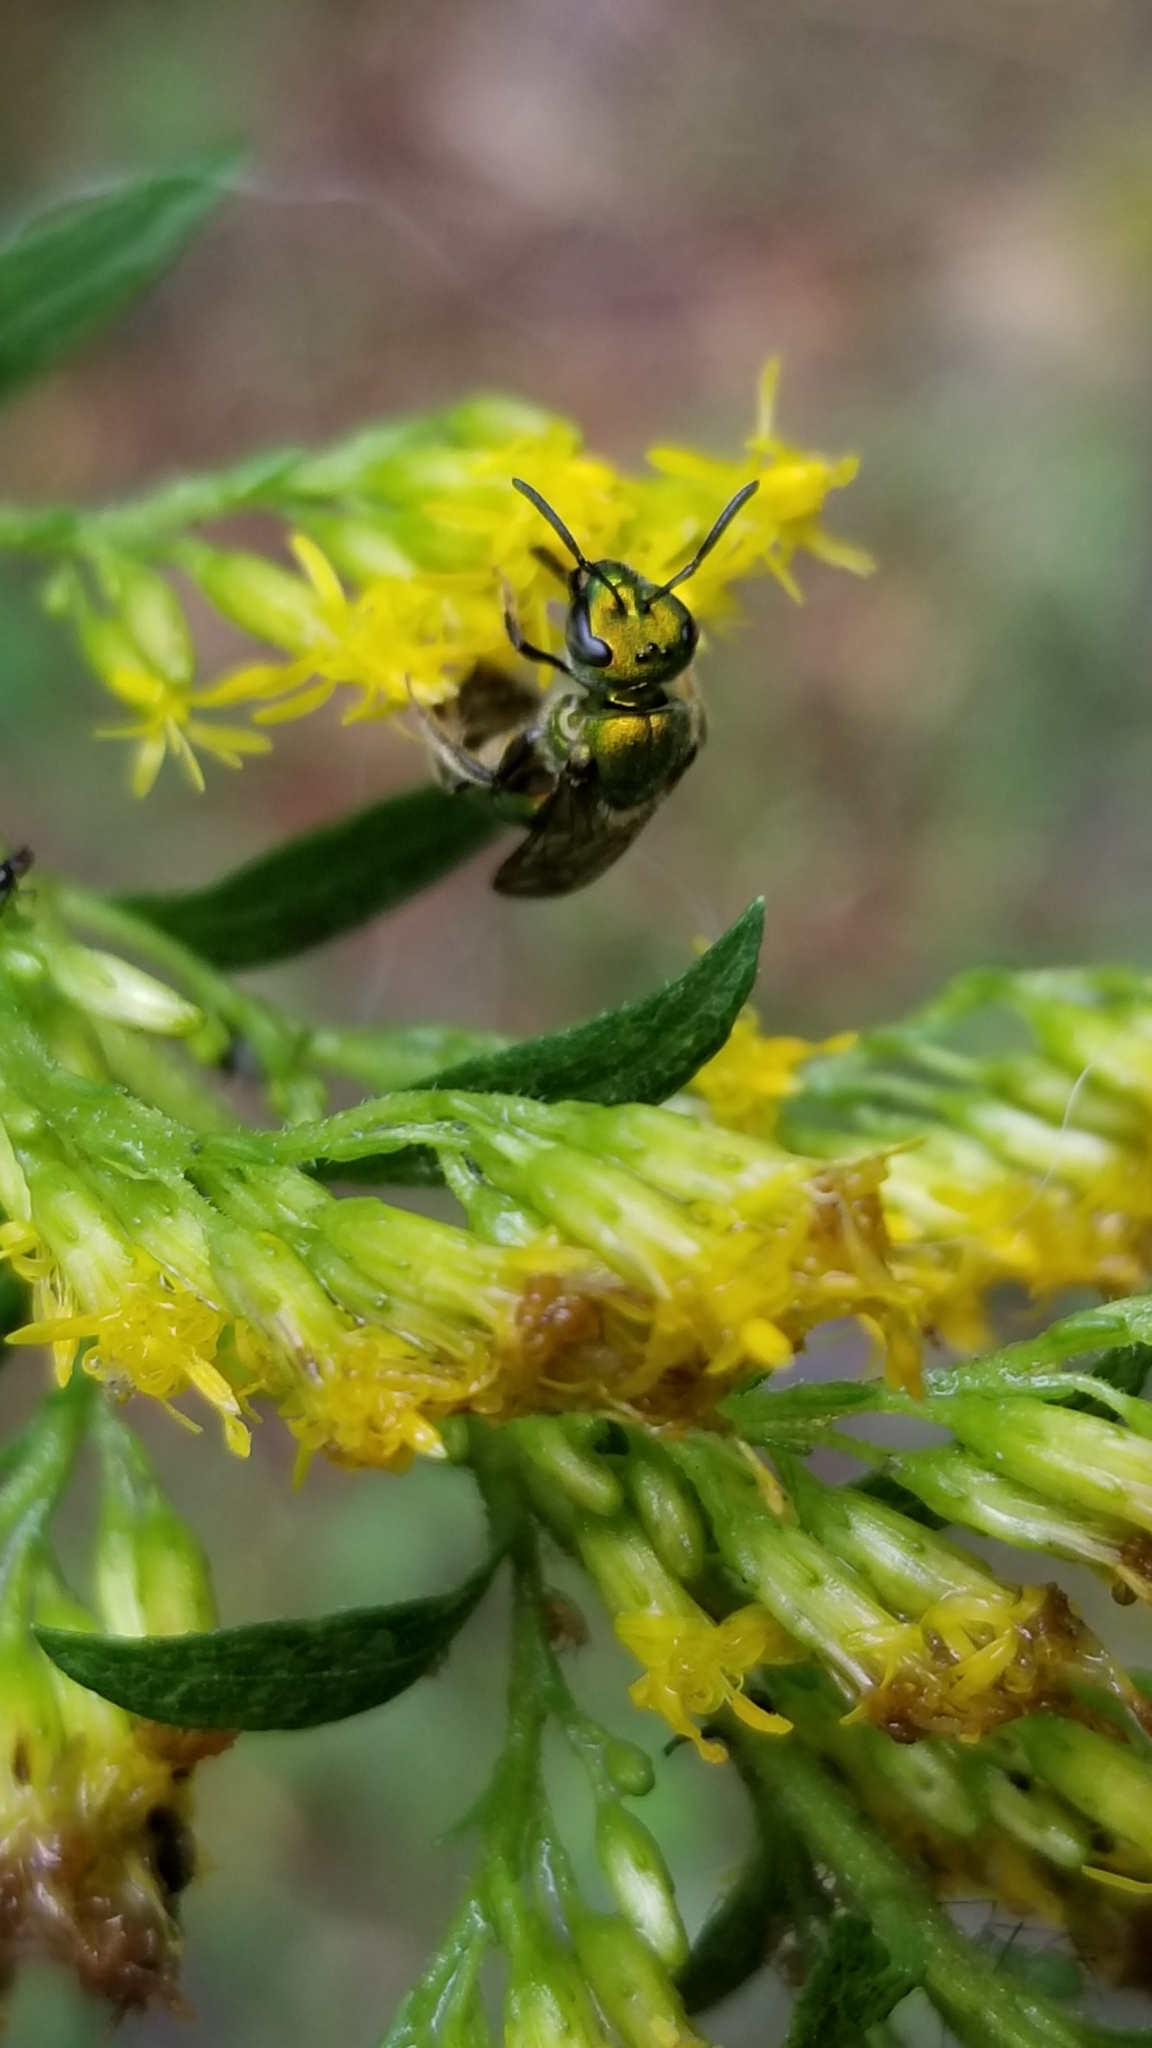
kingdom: Animalia
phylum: Arthropoda
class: Insecta
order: Hymenoptera
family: Halictidae
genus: Augochlora
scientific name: Augochlora pura
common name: Pure green sweat bee
